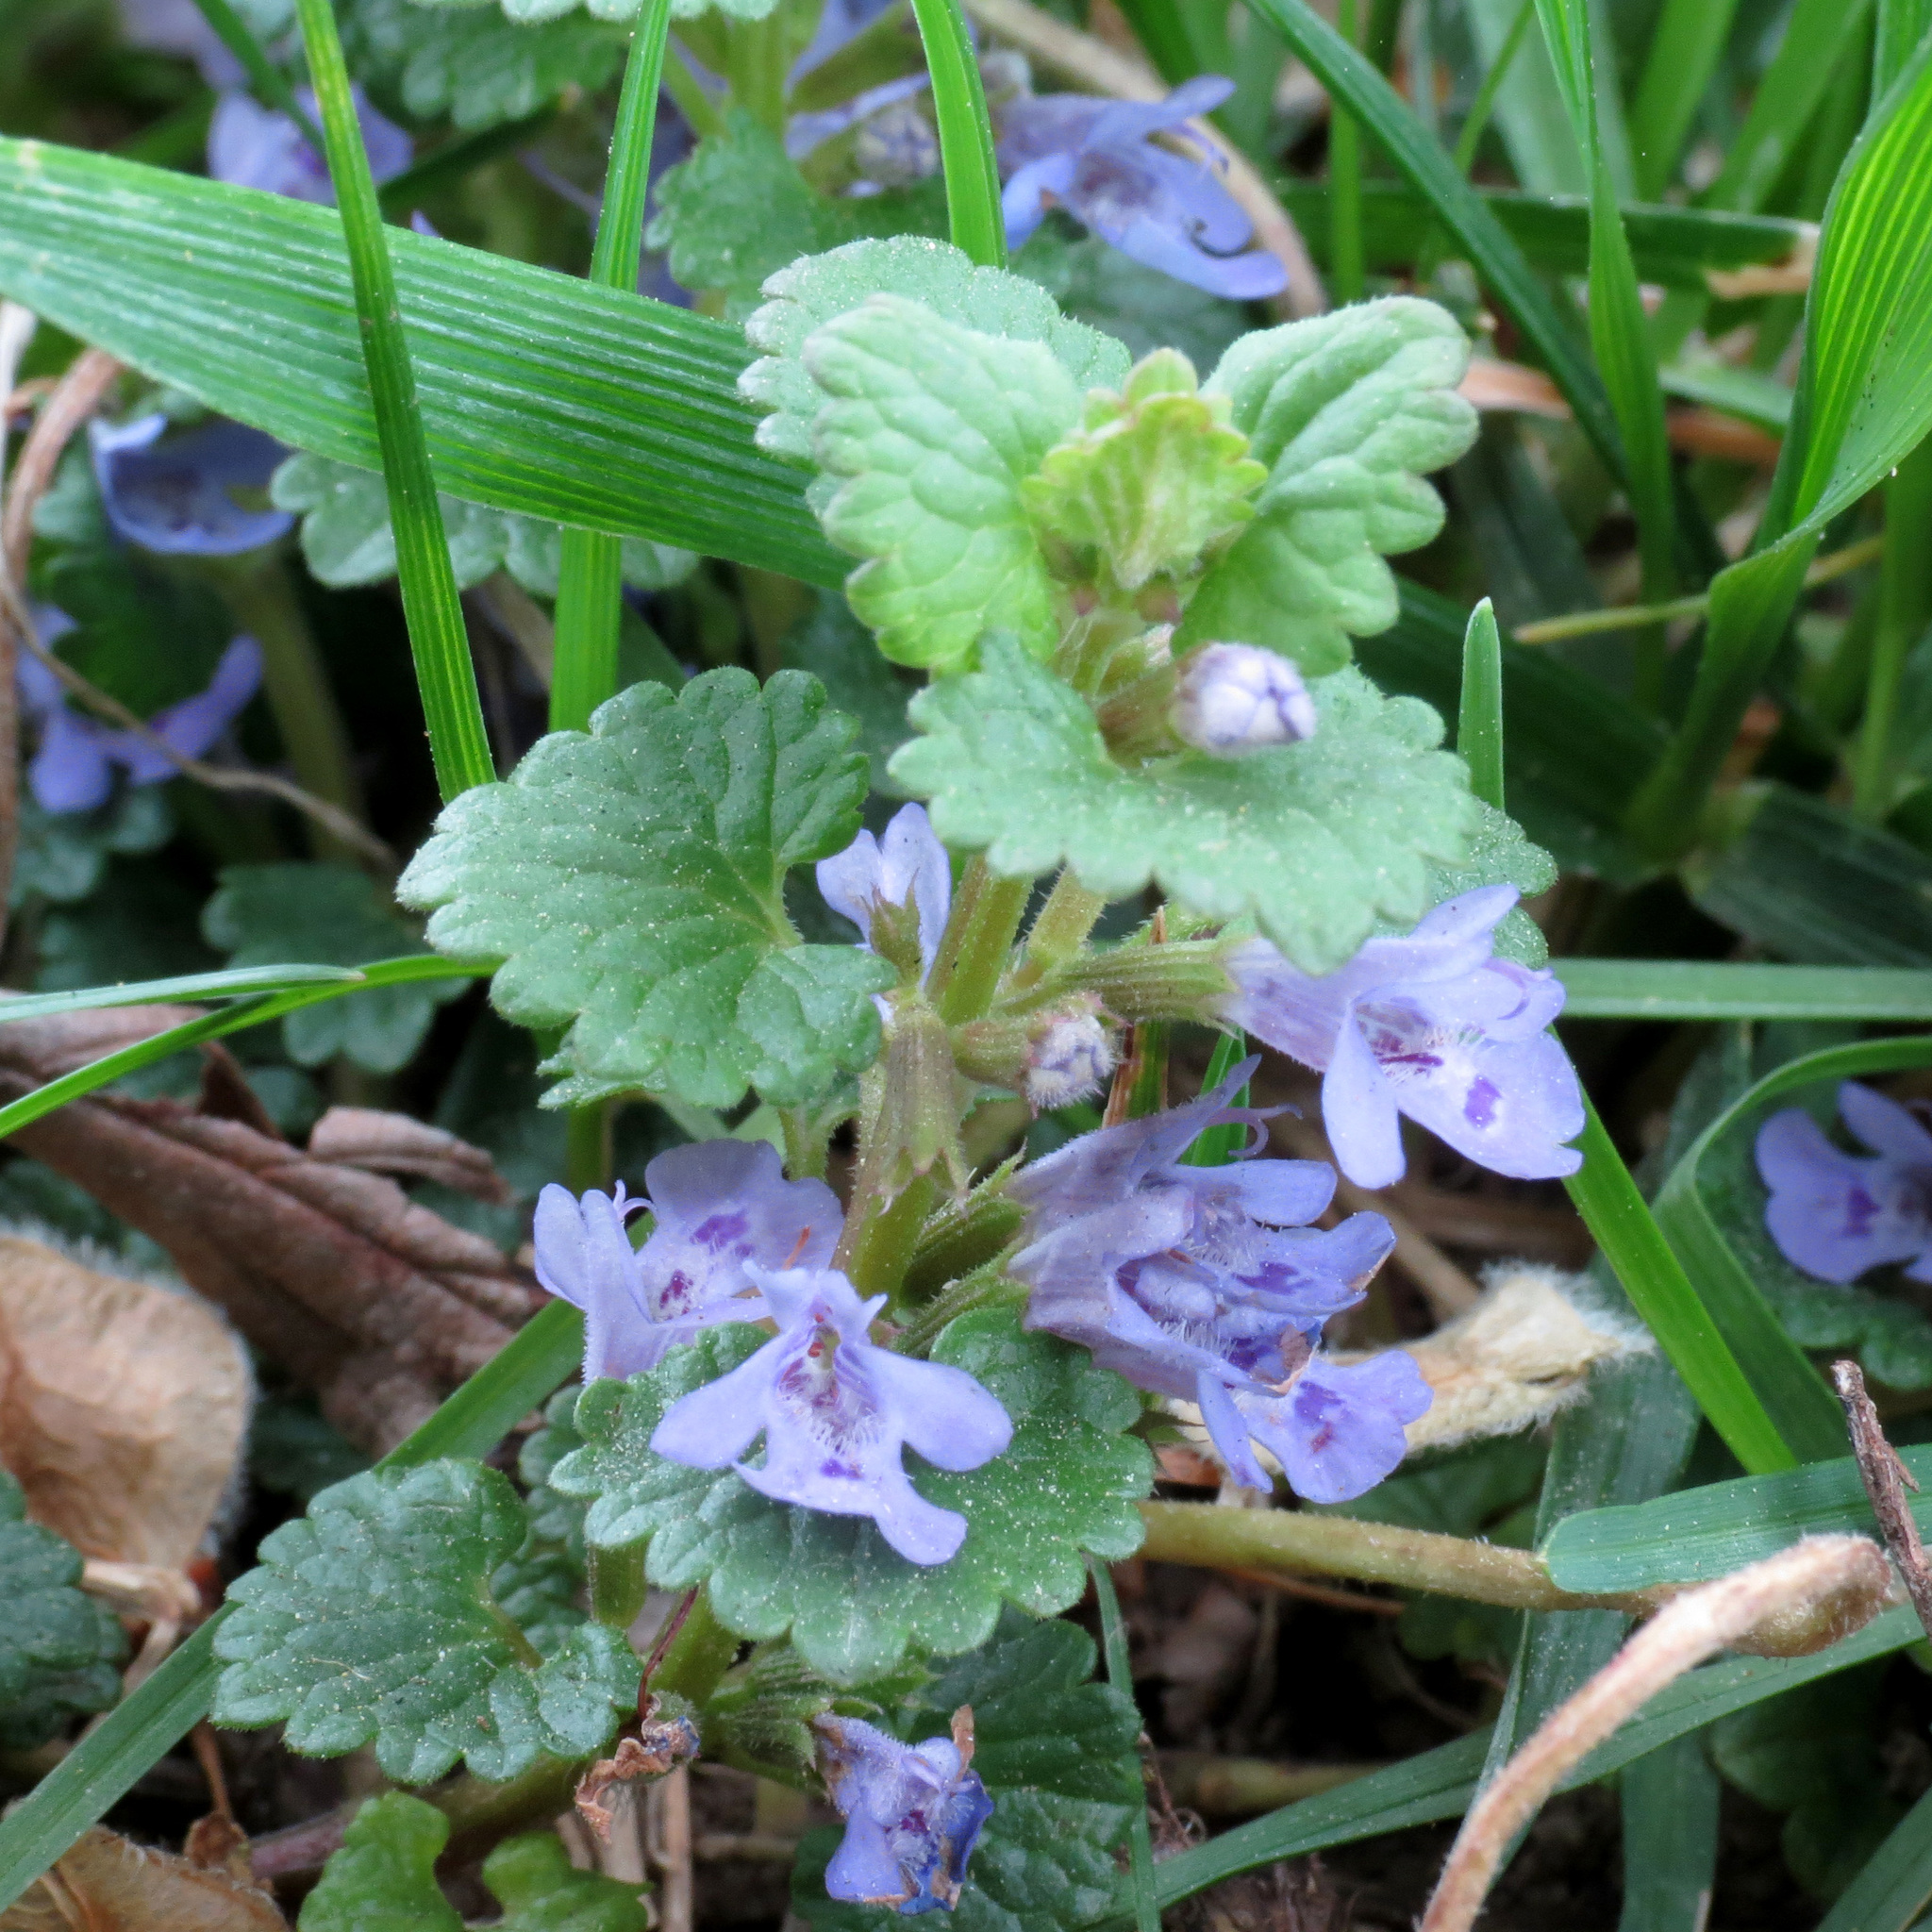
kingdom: Plantae
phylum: Tracheophyta
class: Magnoliopsida
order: Lamiales
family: Lamiaceae
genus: Glechoma
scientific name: Glechoma hederacea
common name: Ground ivy
